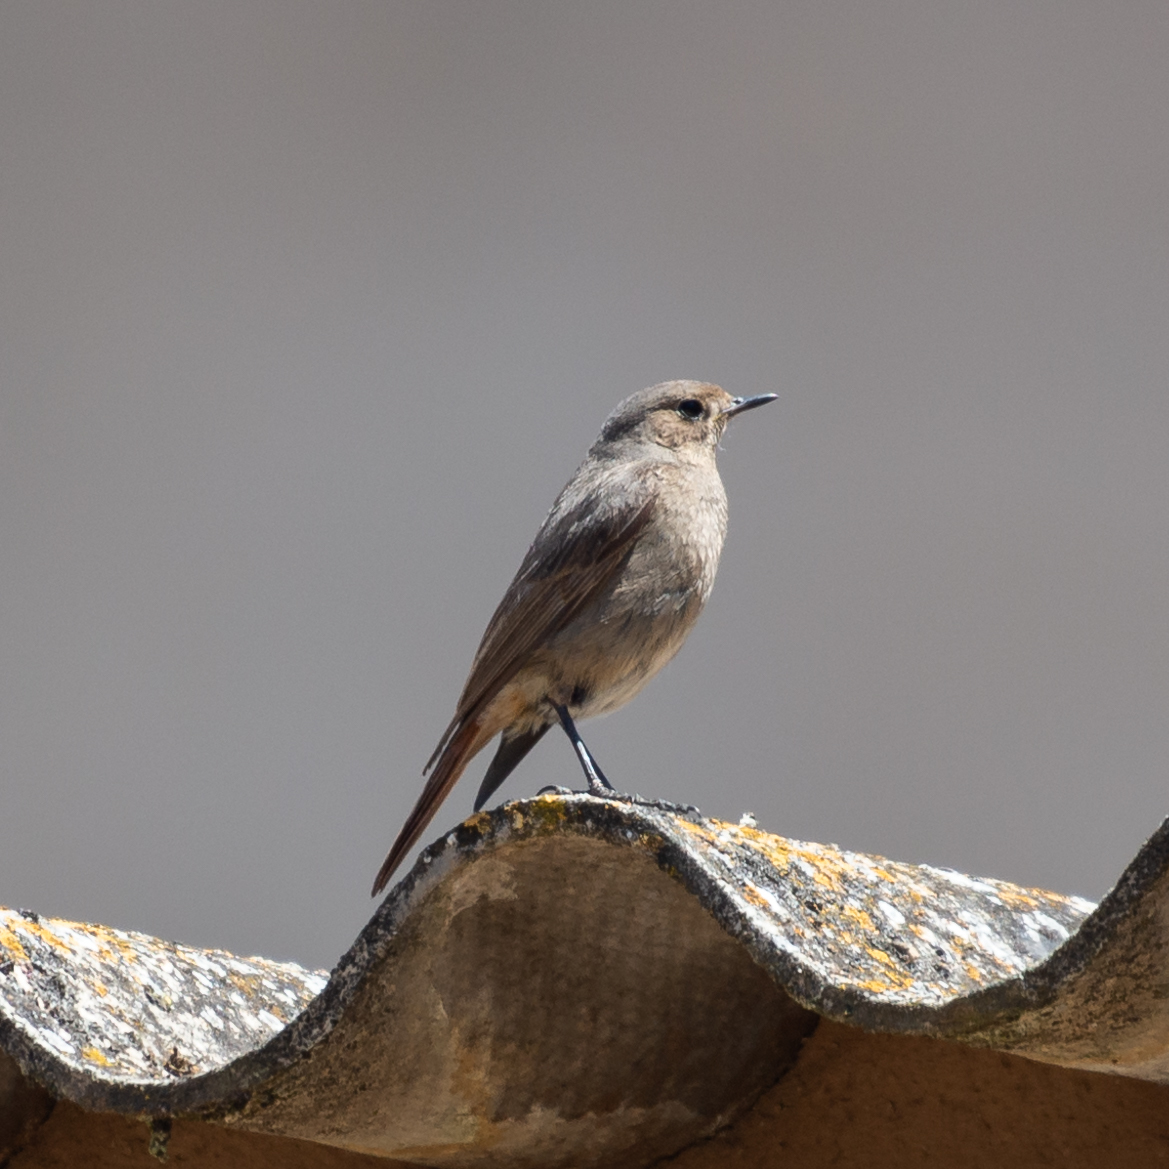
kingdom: Animalia
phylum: Chordata
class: Aves
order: Passeriformes
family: Muscicapidae
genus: Phoenicurus
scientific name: Phoenicurus ochruros
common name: Black redstart
